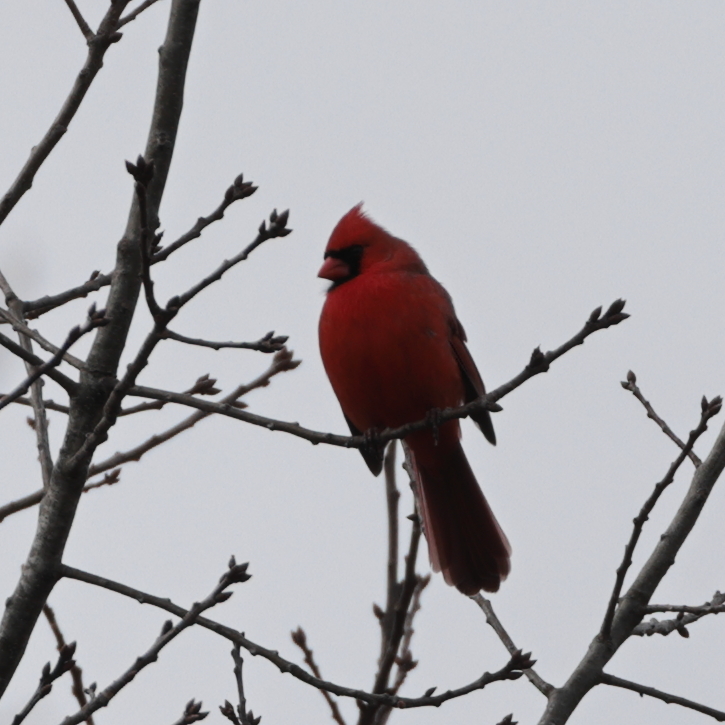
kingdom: Animalia
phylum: Chordata
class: Aves
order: Passeriformes
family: Cardinalidae
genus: Cardinalis
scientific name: Cardinalis cardinalis
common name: Northern cardinal
